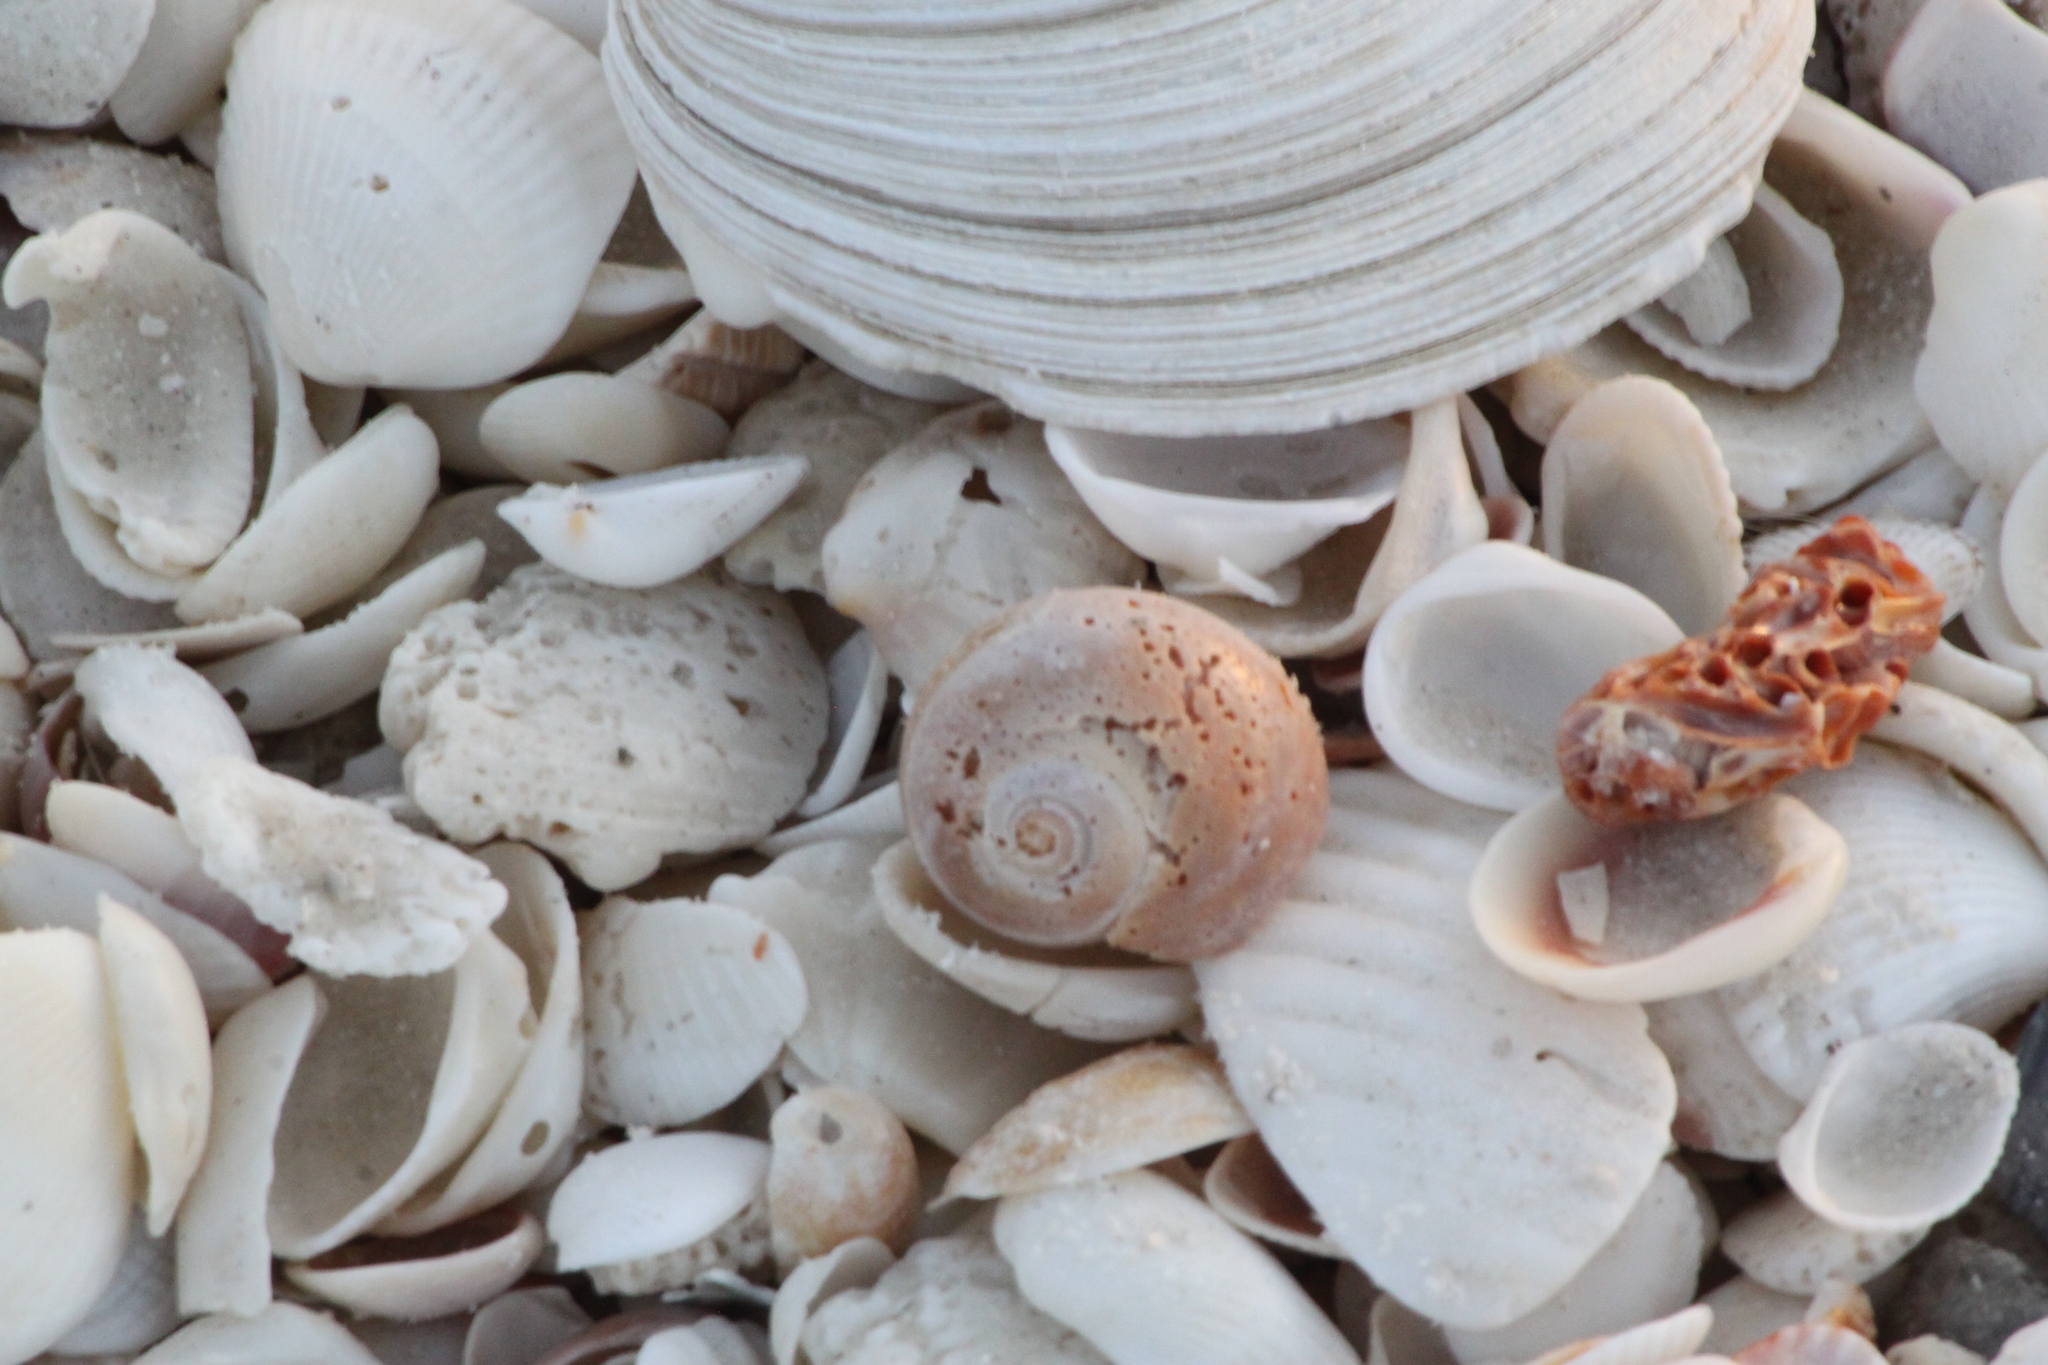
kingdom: Animalia
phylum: Mollusca
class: Gastropoda
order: Littorinimorpha
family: Naticidae
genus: Neverita
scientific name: Neverita
